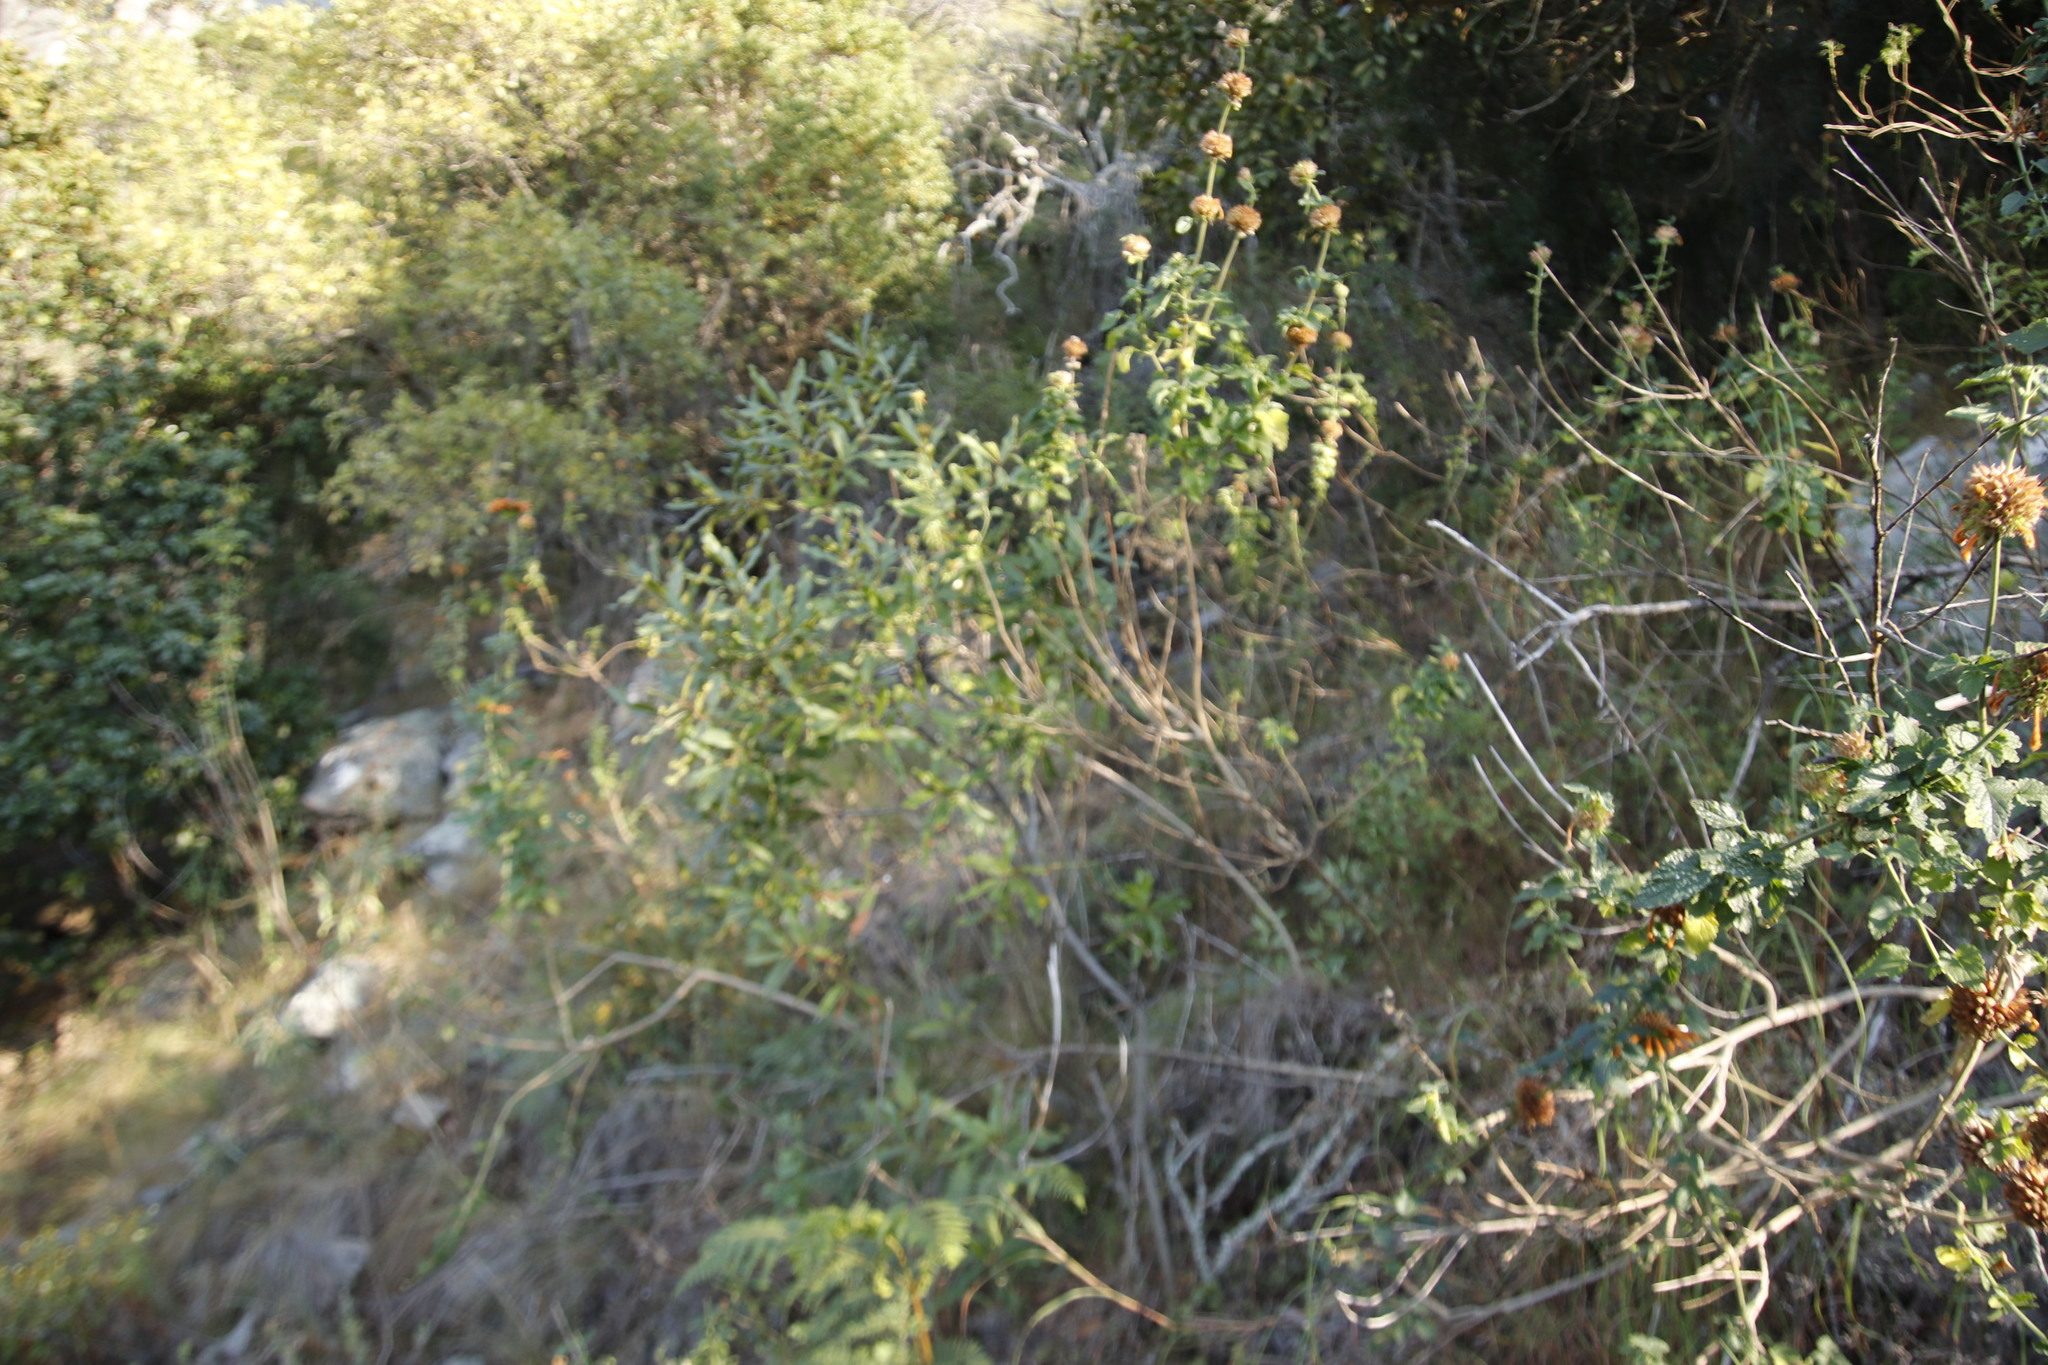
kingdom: Plantae
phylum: Tracheophyta
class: Magnoliopsida
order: Lamiales
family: Lamiaceae
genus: Leonotis
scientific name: Leonotis ocymifolia
